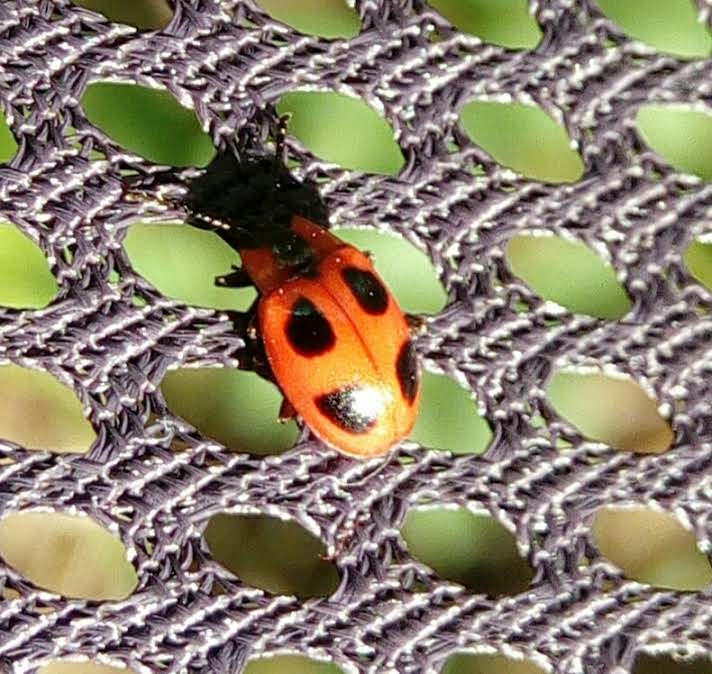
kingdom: Animalia
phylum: Arthropoda
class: Insecta
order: Coleoptera
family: Endomychidae
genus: Endomychus
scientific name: Endomychus coccineus
